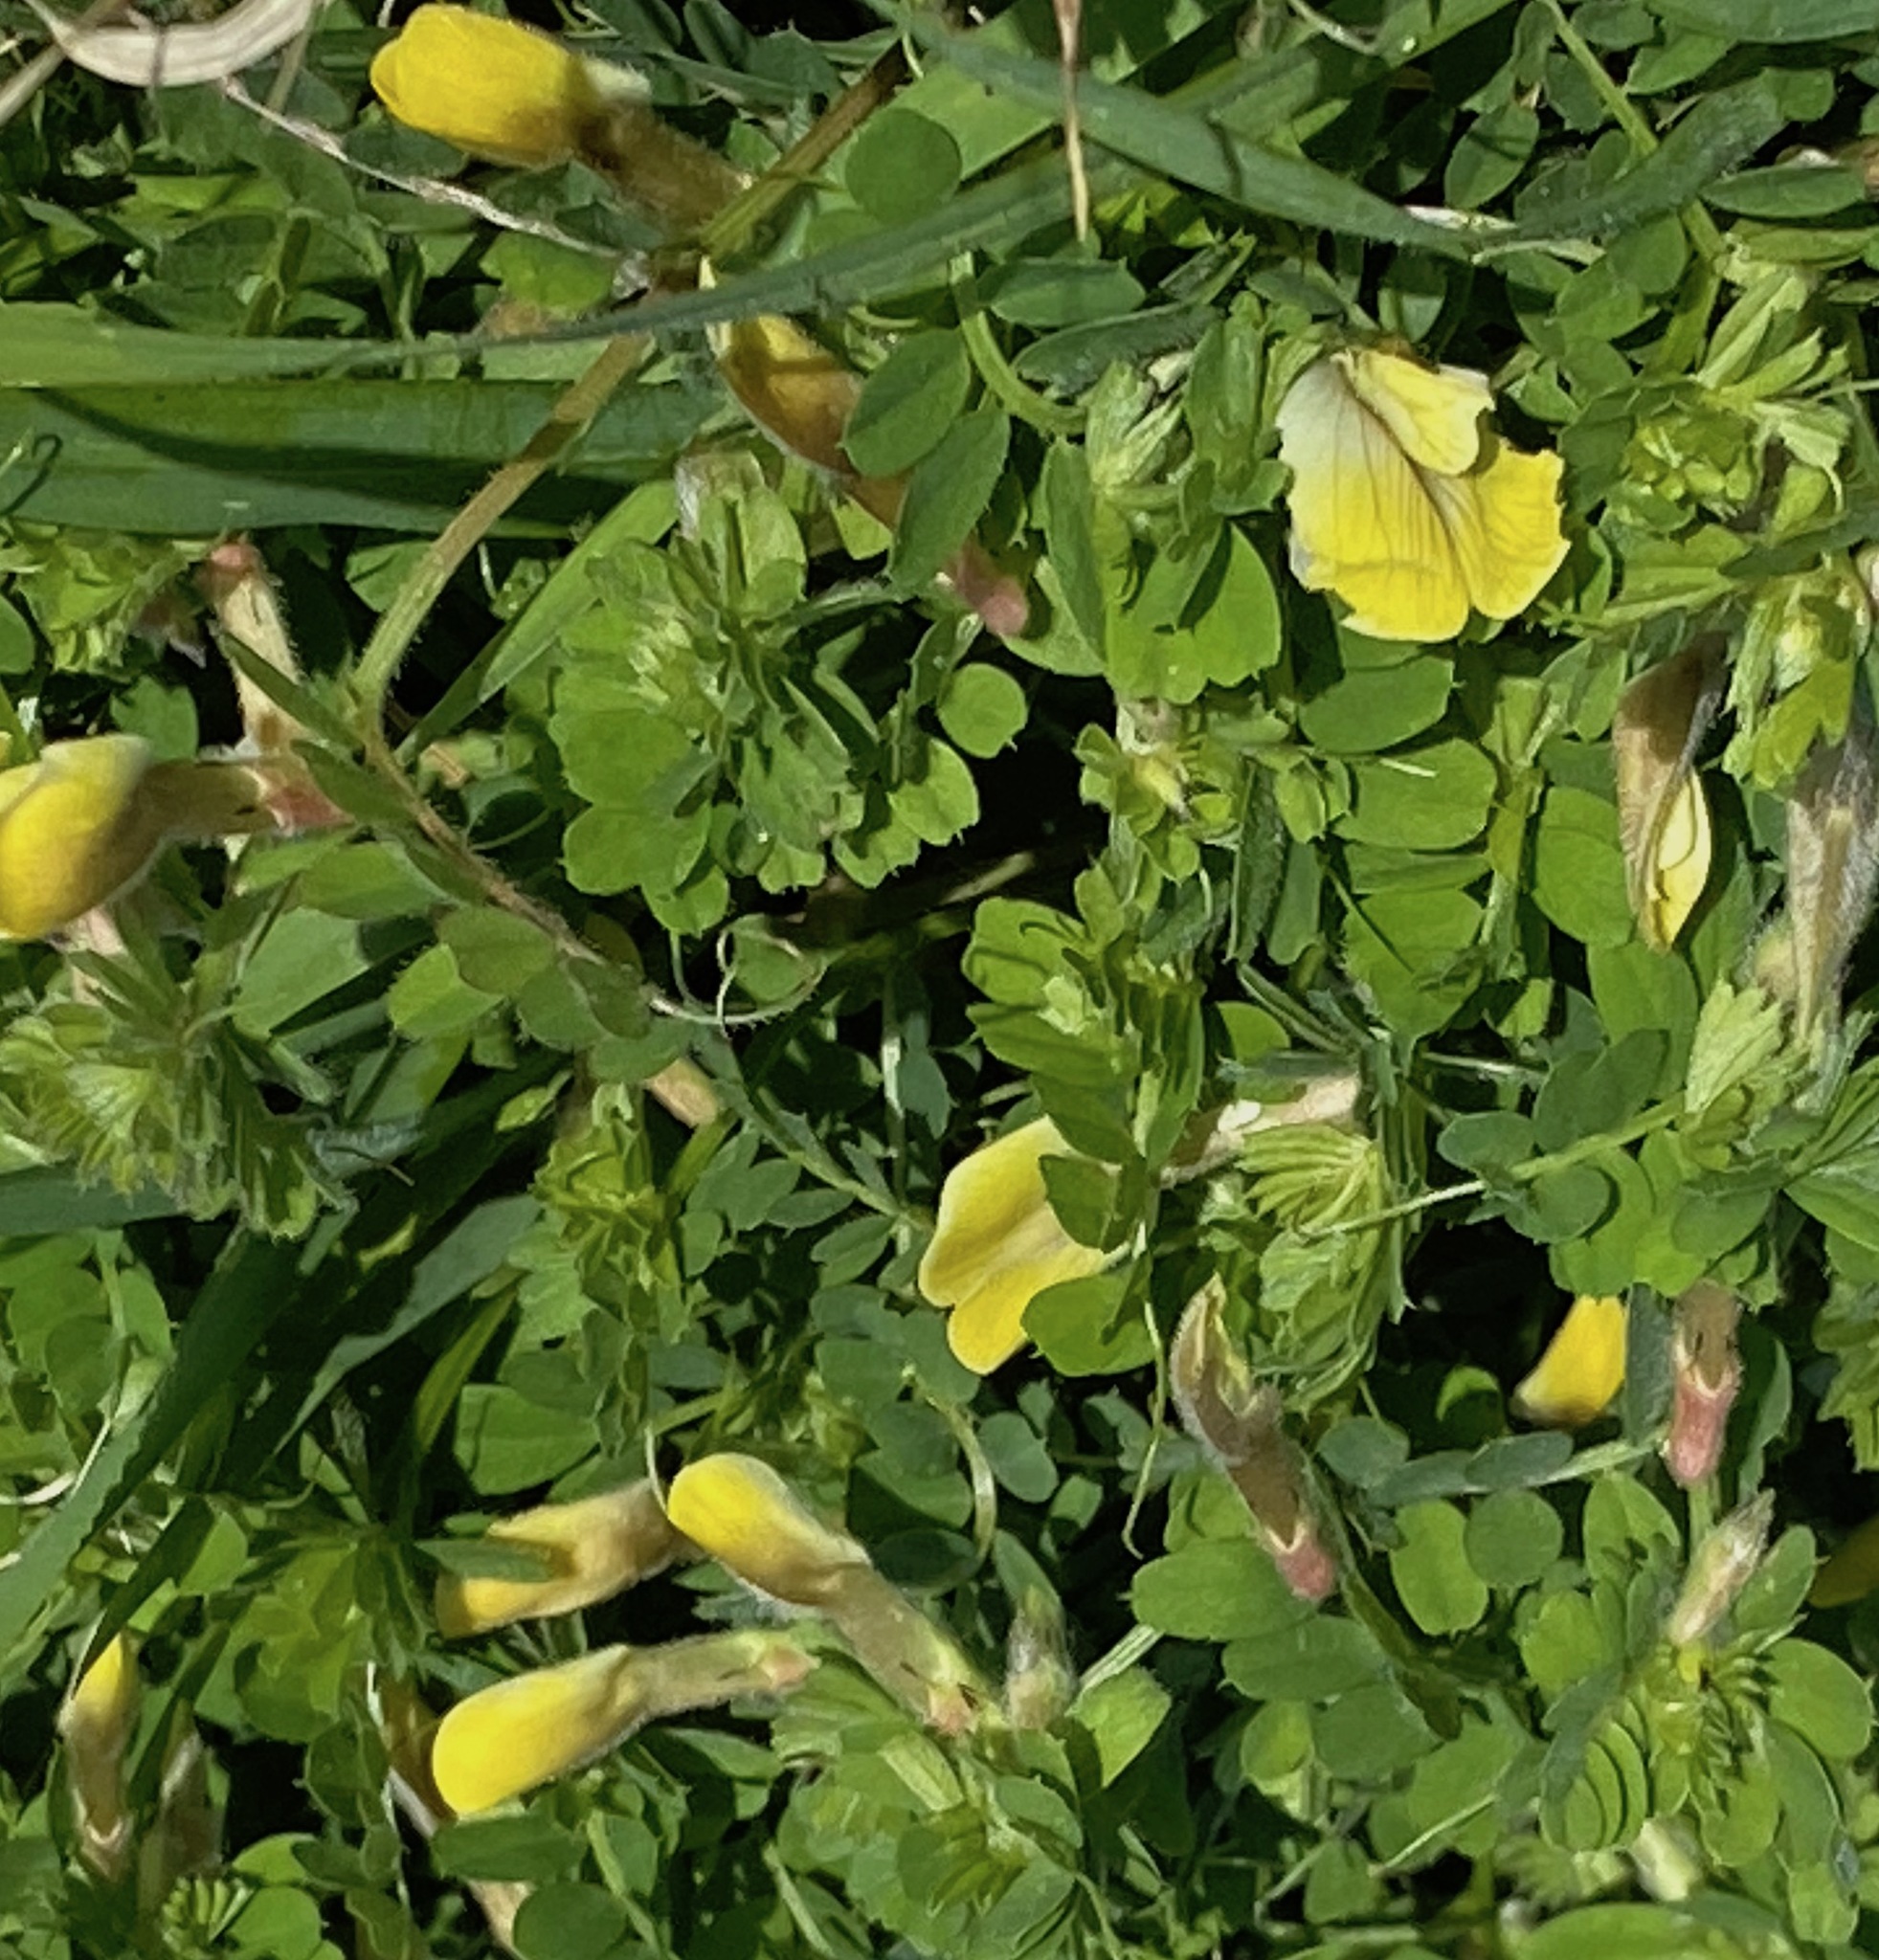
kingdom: Plantae
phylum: Tracheophyta
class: Magnoliopsida
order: Fabales
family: Fabaceae
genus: Vicia
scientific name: Vicia hybrida
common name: Hairy yellow vetch
